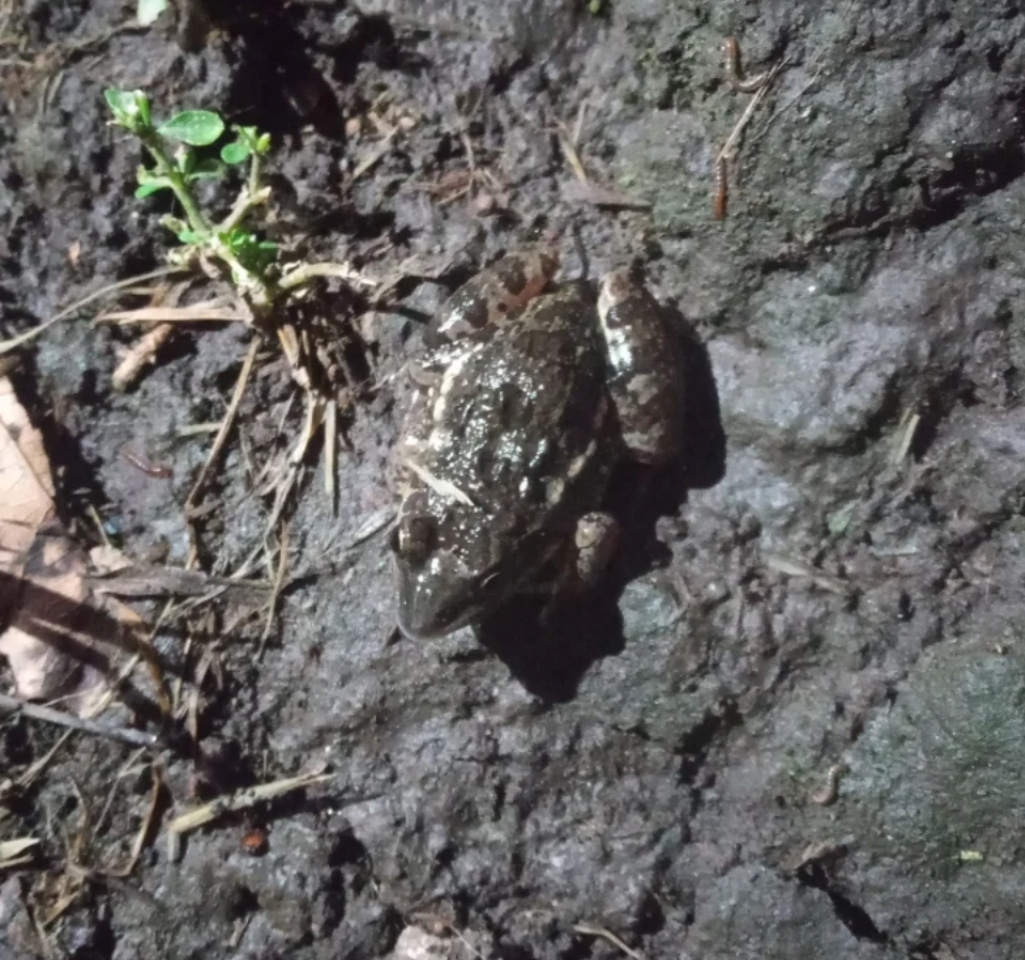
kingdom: Animalia
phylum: Chordata
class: Amphibia
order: Anura
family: Leptodactylidae
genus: Leptodactylus
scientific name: Leptodactylus latinasus
